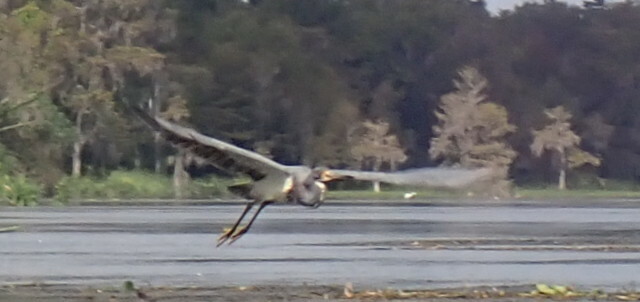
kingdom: Animalia
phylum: Chordata
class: Aves
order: Pelecaniformes
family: Ardeidae
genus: Ardea
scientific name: Ardea alba
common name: Great egret
